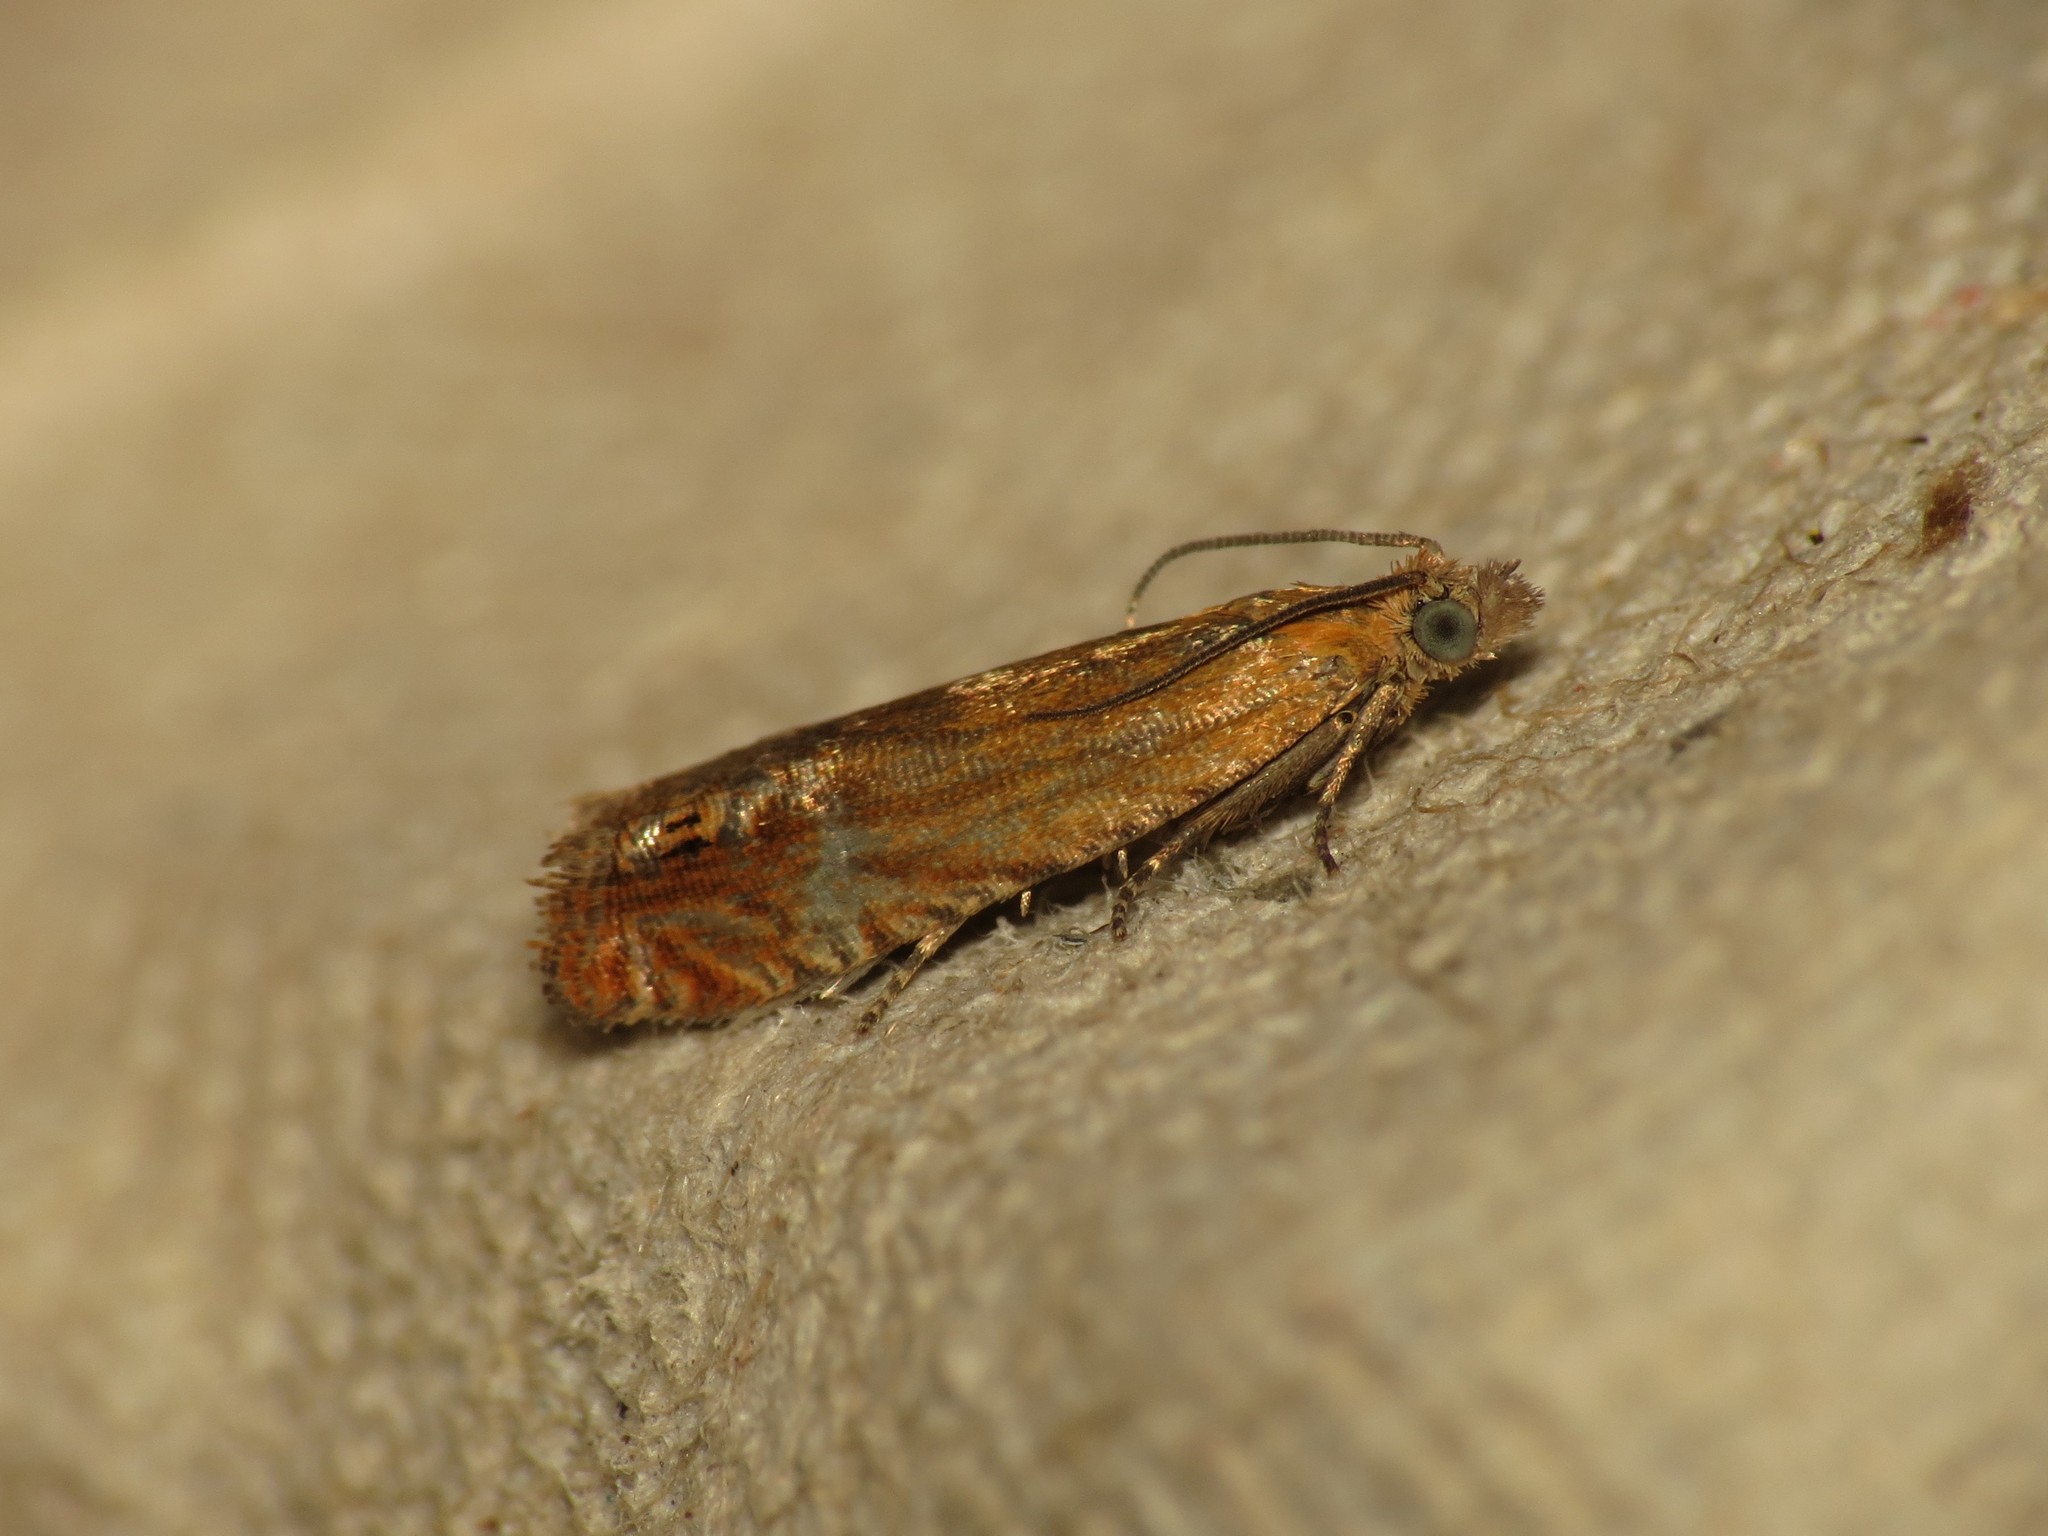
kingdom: Animalia
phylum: Arthropoda
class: Insecta
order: Lepidoptera
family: Tortricidae
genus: Lathronympha
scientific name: Lathronympha strigana
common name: Red piercer
